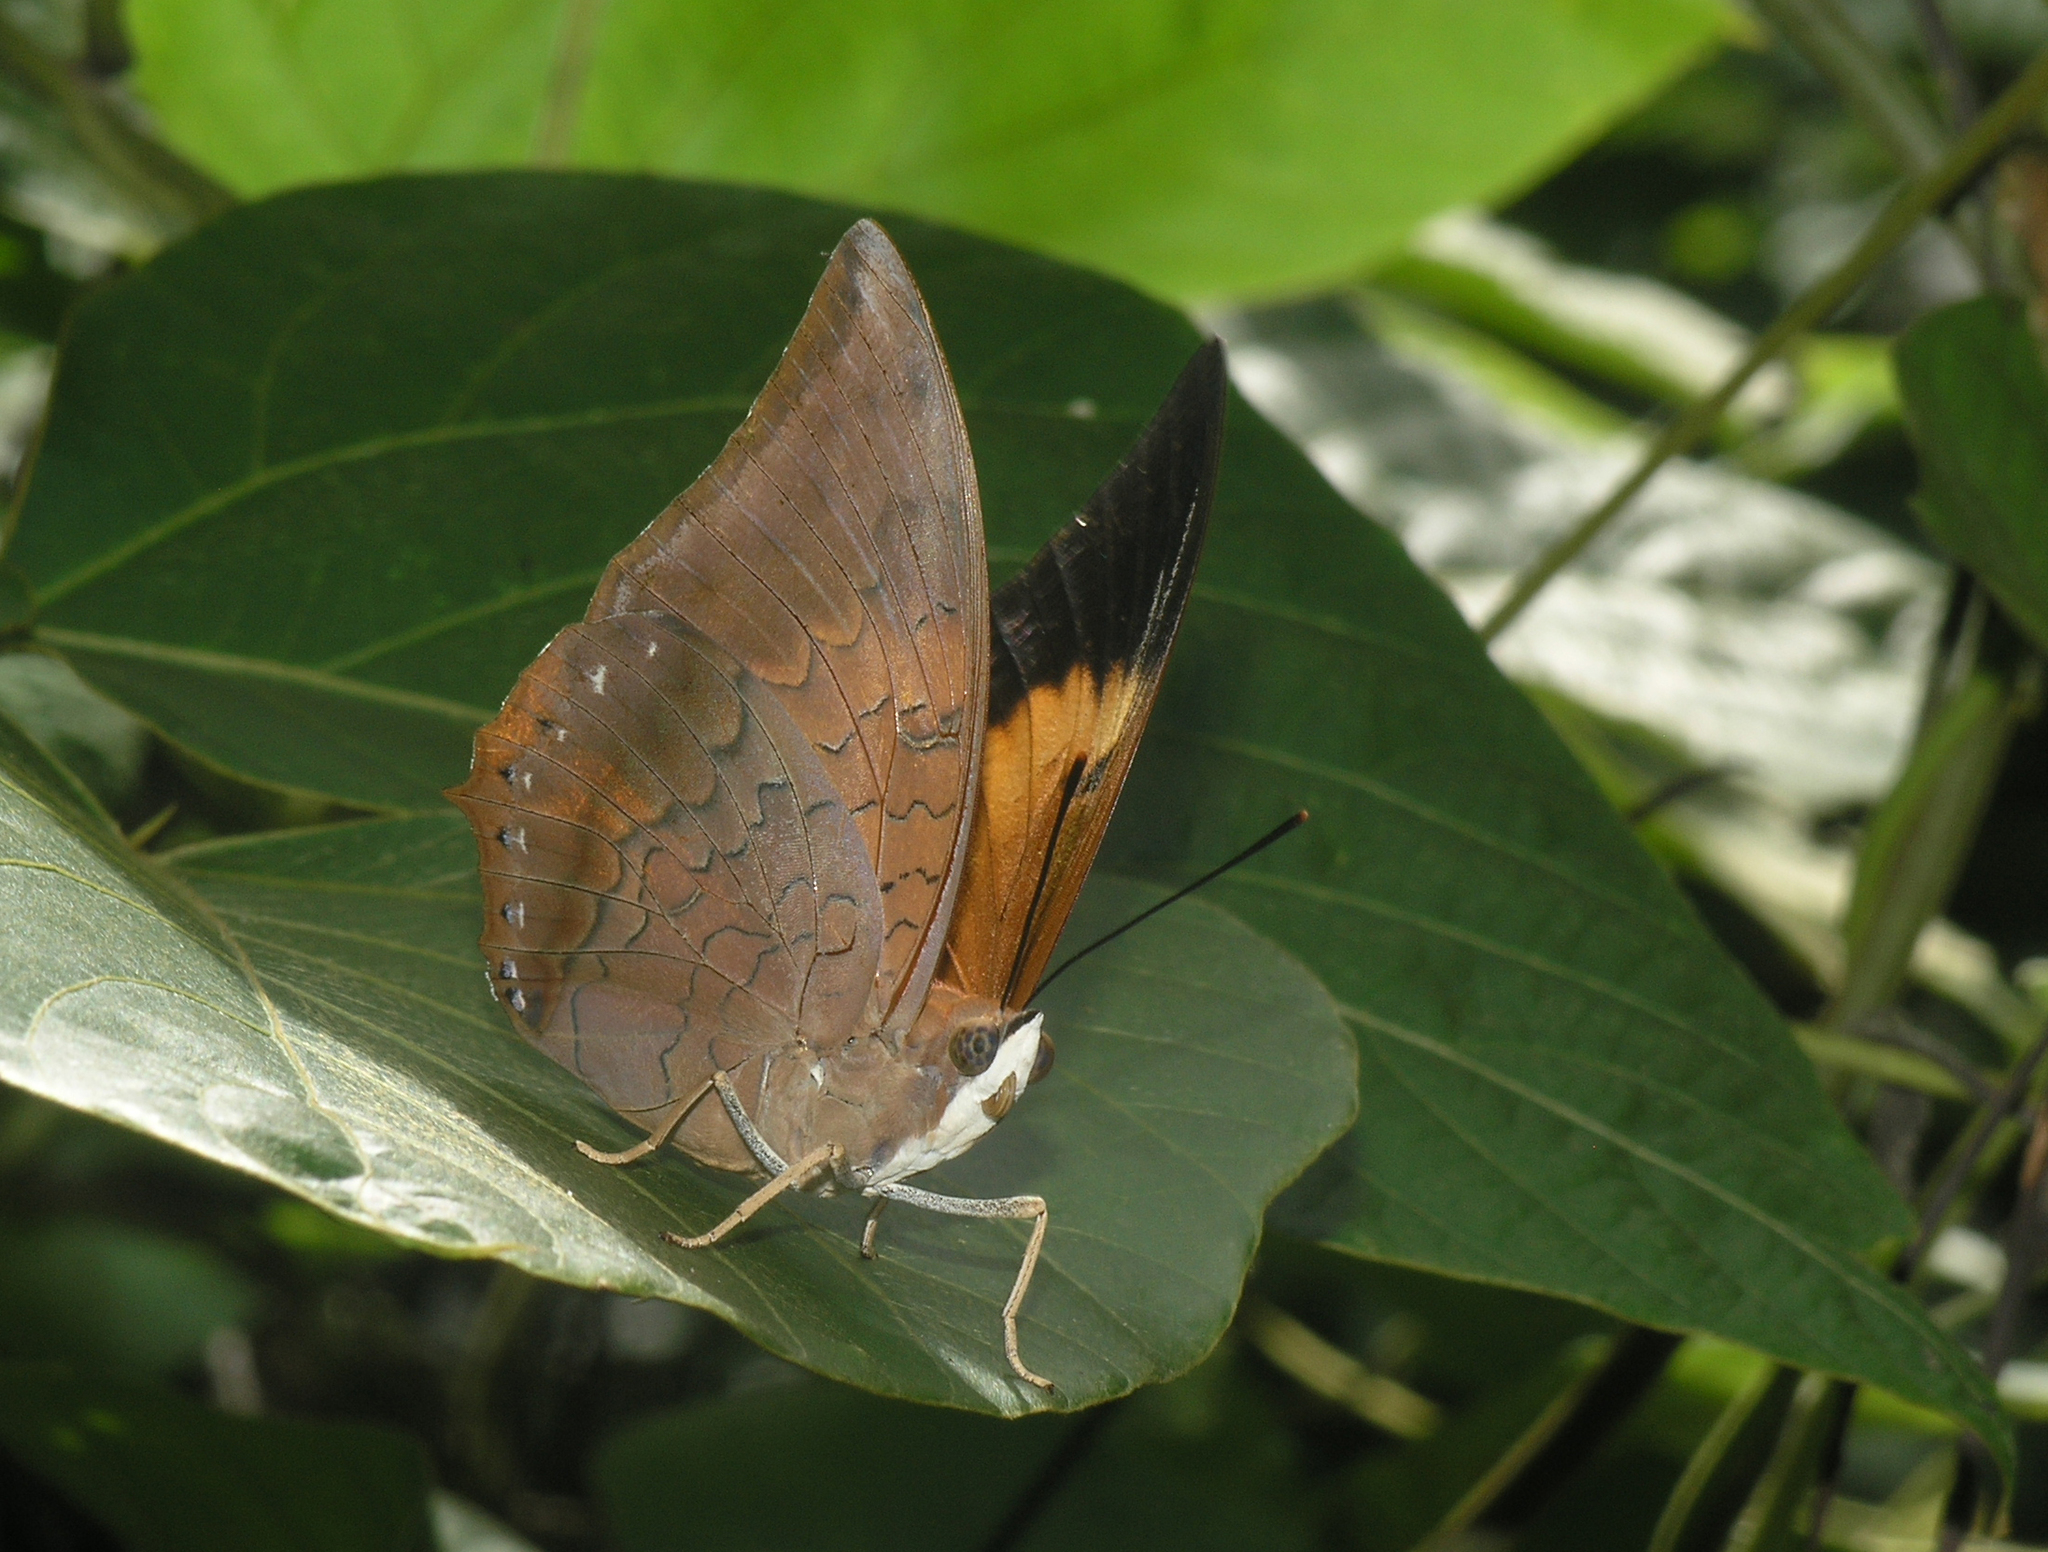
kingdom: Animalia
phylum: Arthropoda
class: Insecta
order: Lepidoptera
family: Nymphalidae
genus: Charaxes
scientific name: Charaxes bernardus
